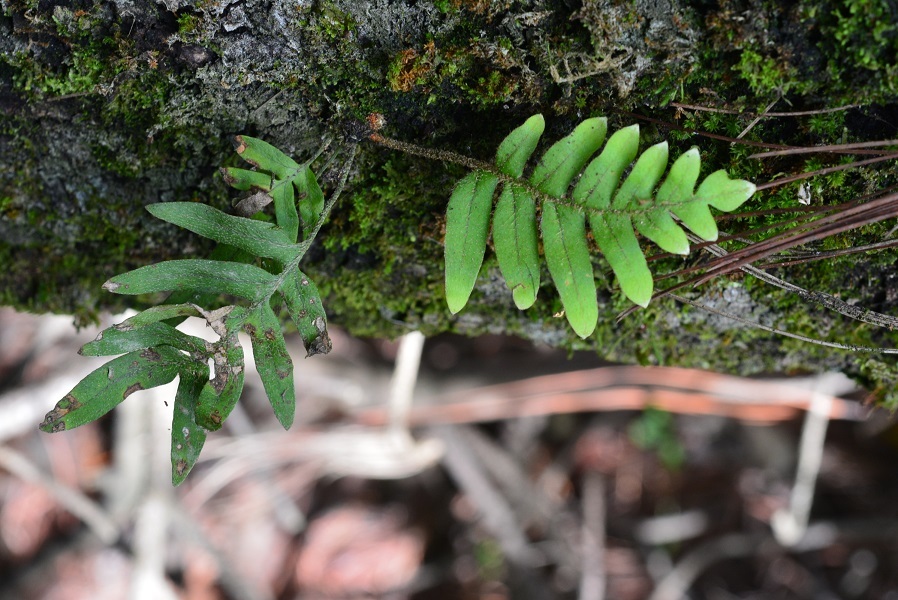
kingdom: Plantae
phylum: Tracheophyta
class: Polypodiopsida
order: Polypodiales
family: Polypodiaceae
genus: Pleopeltis
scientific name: Pleopeltis plebeia
